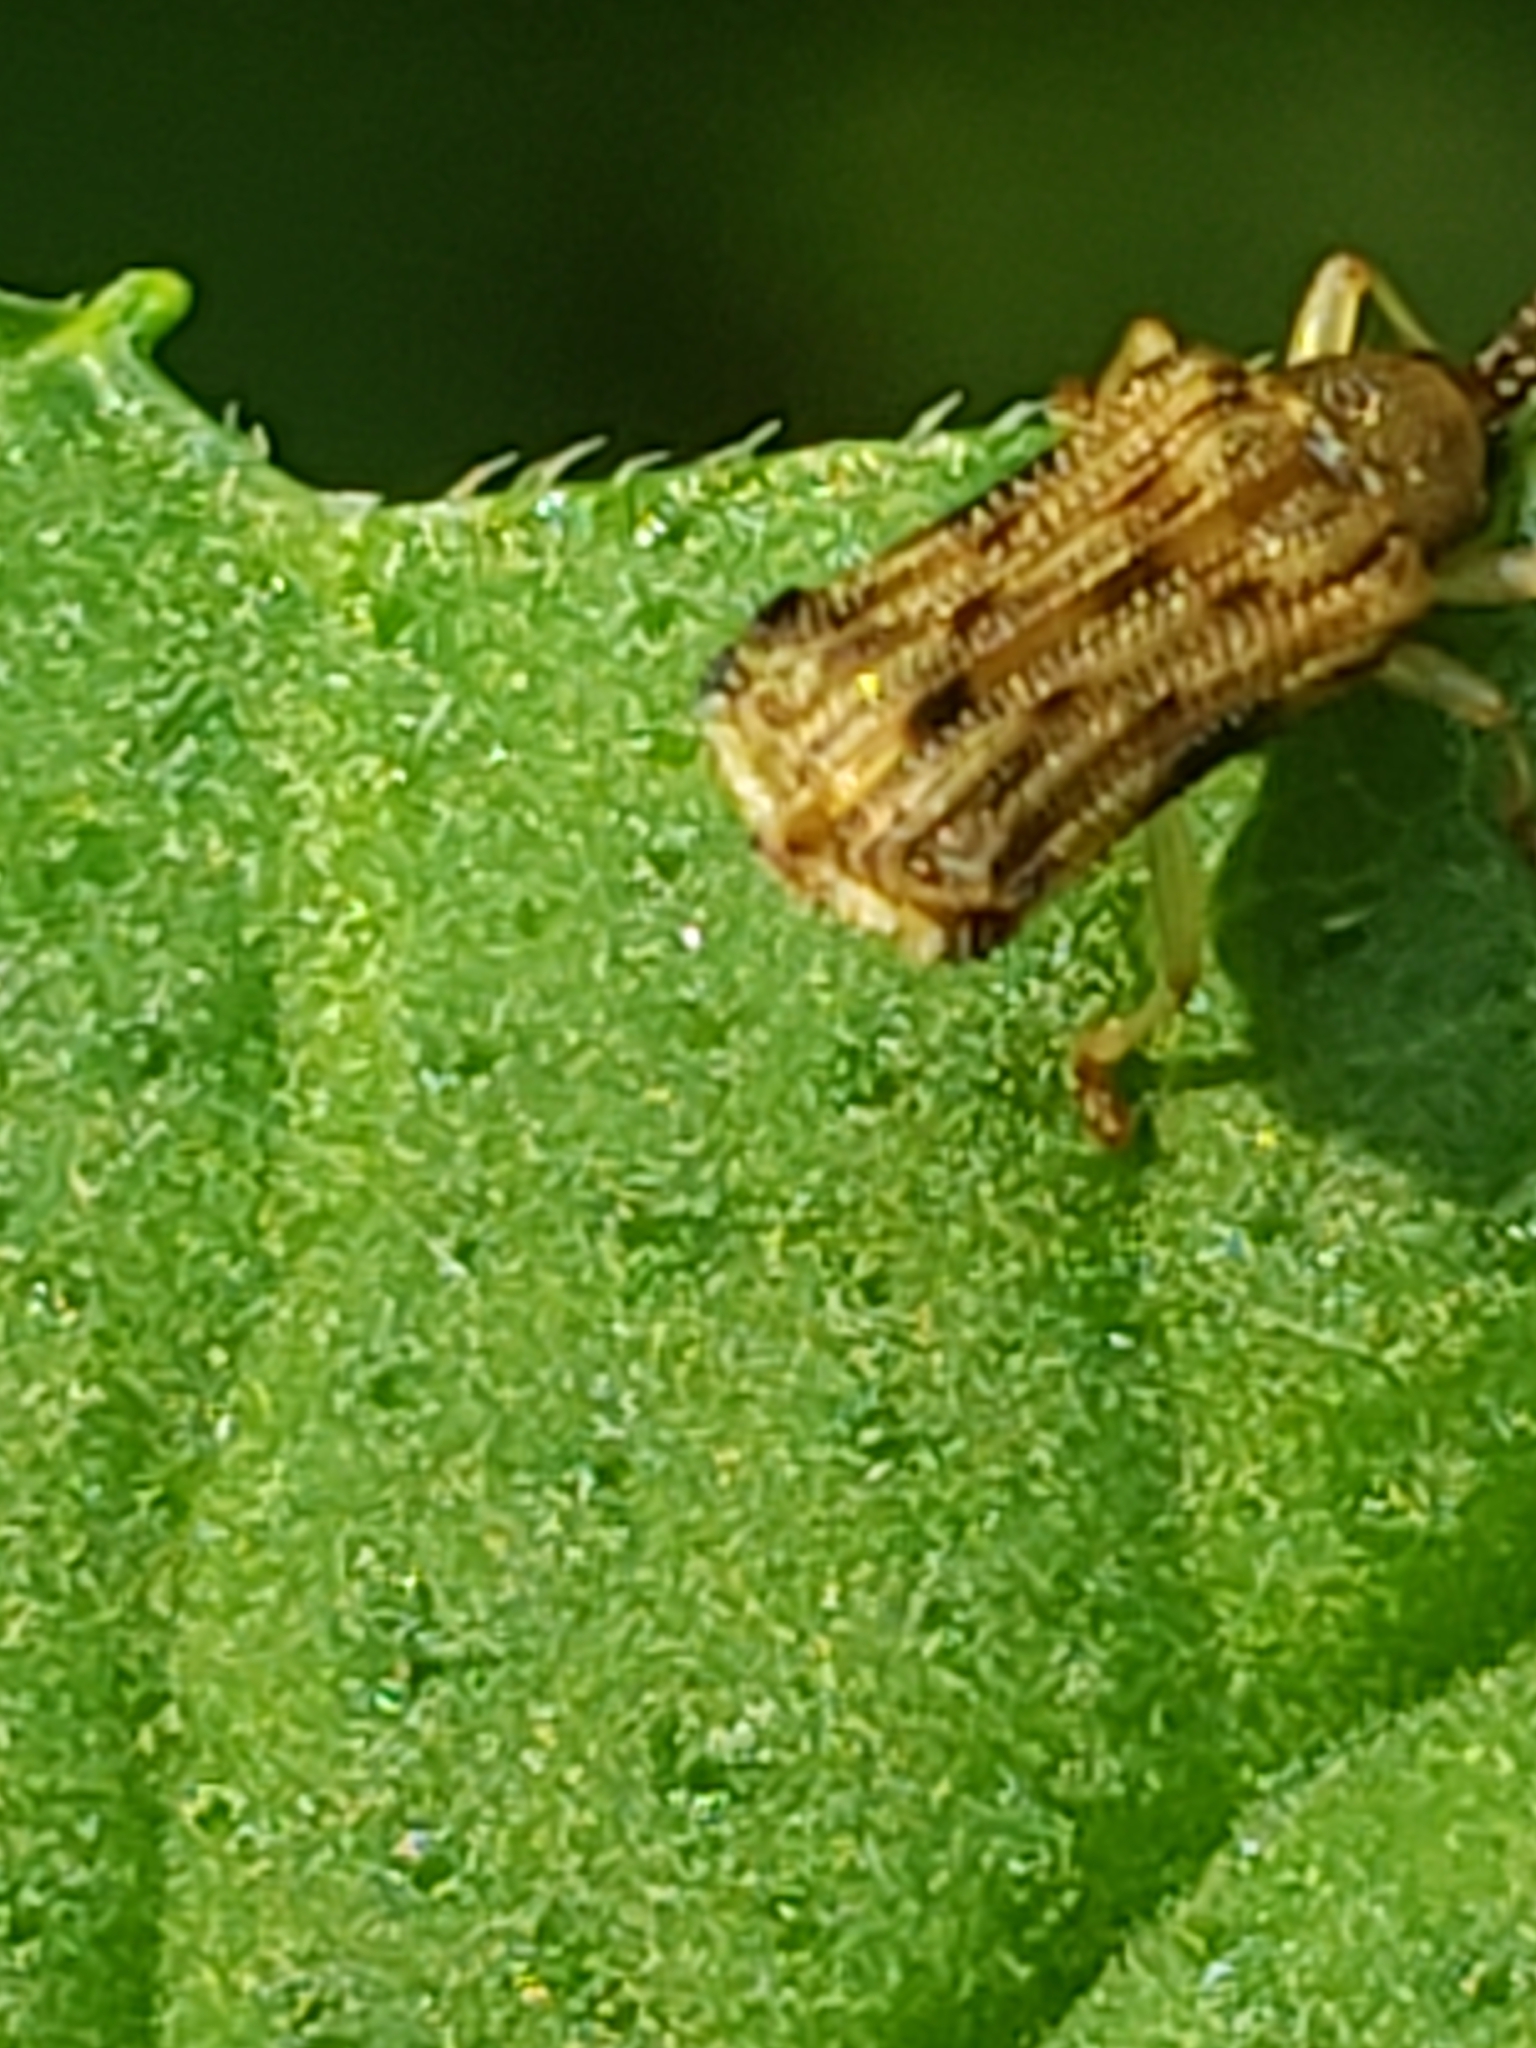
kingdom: Animalia
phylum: Arthropoda
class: Insecta
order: Coleoptera
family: Chrysomelidae
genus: Sumitrosis
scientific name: Sumitrosis rosea
